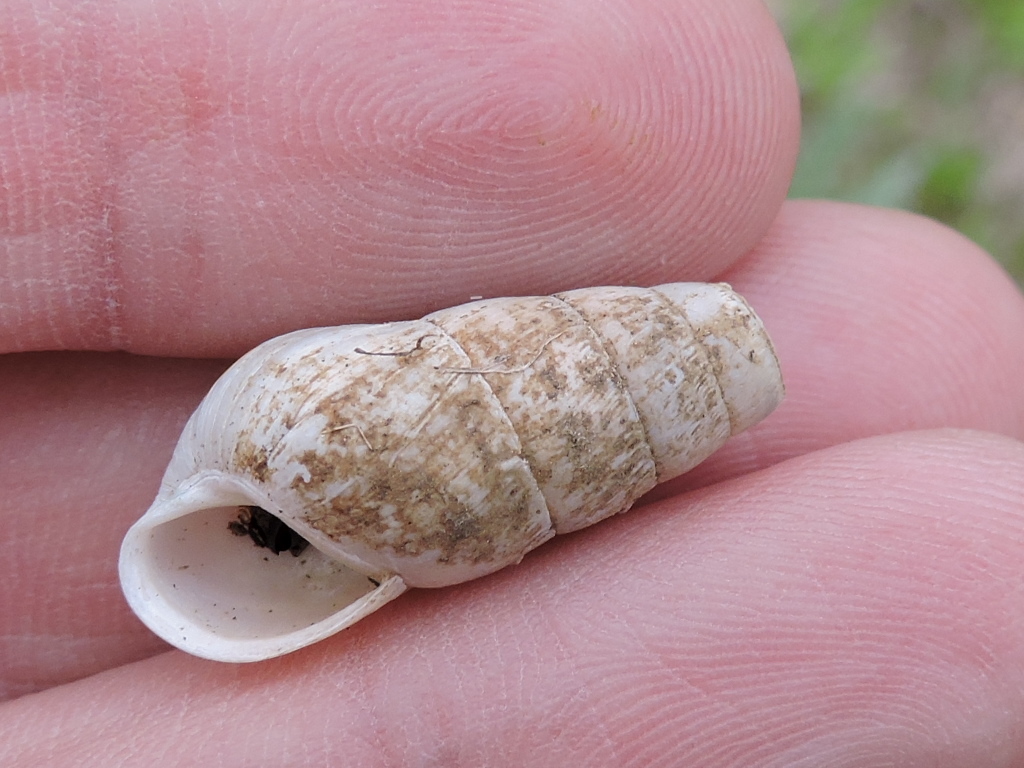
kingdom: Animalia
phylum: Mollusca
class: Gastropoda
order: Stylommatophora
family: Achatinidae
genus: Rumina
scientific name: Rumina decollata
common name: Decollate snail
